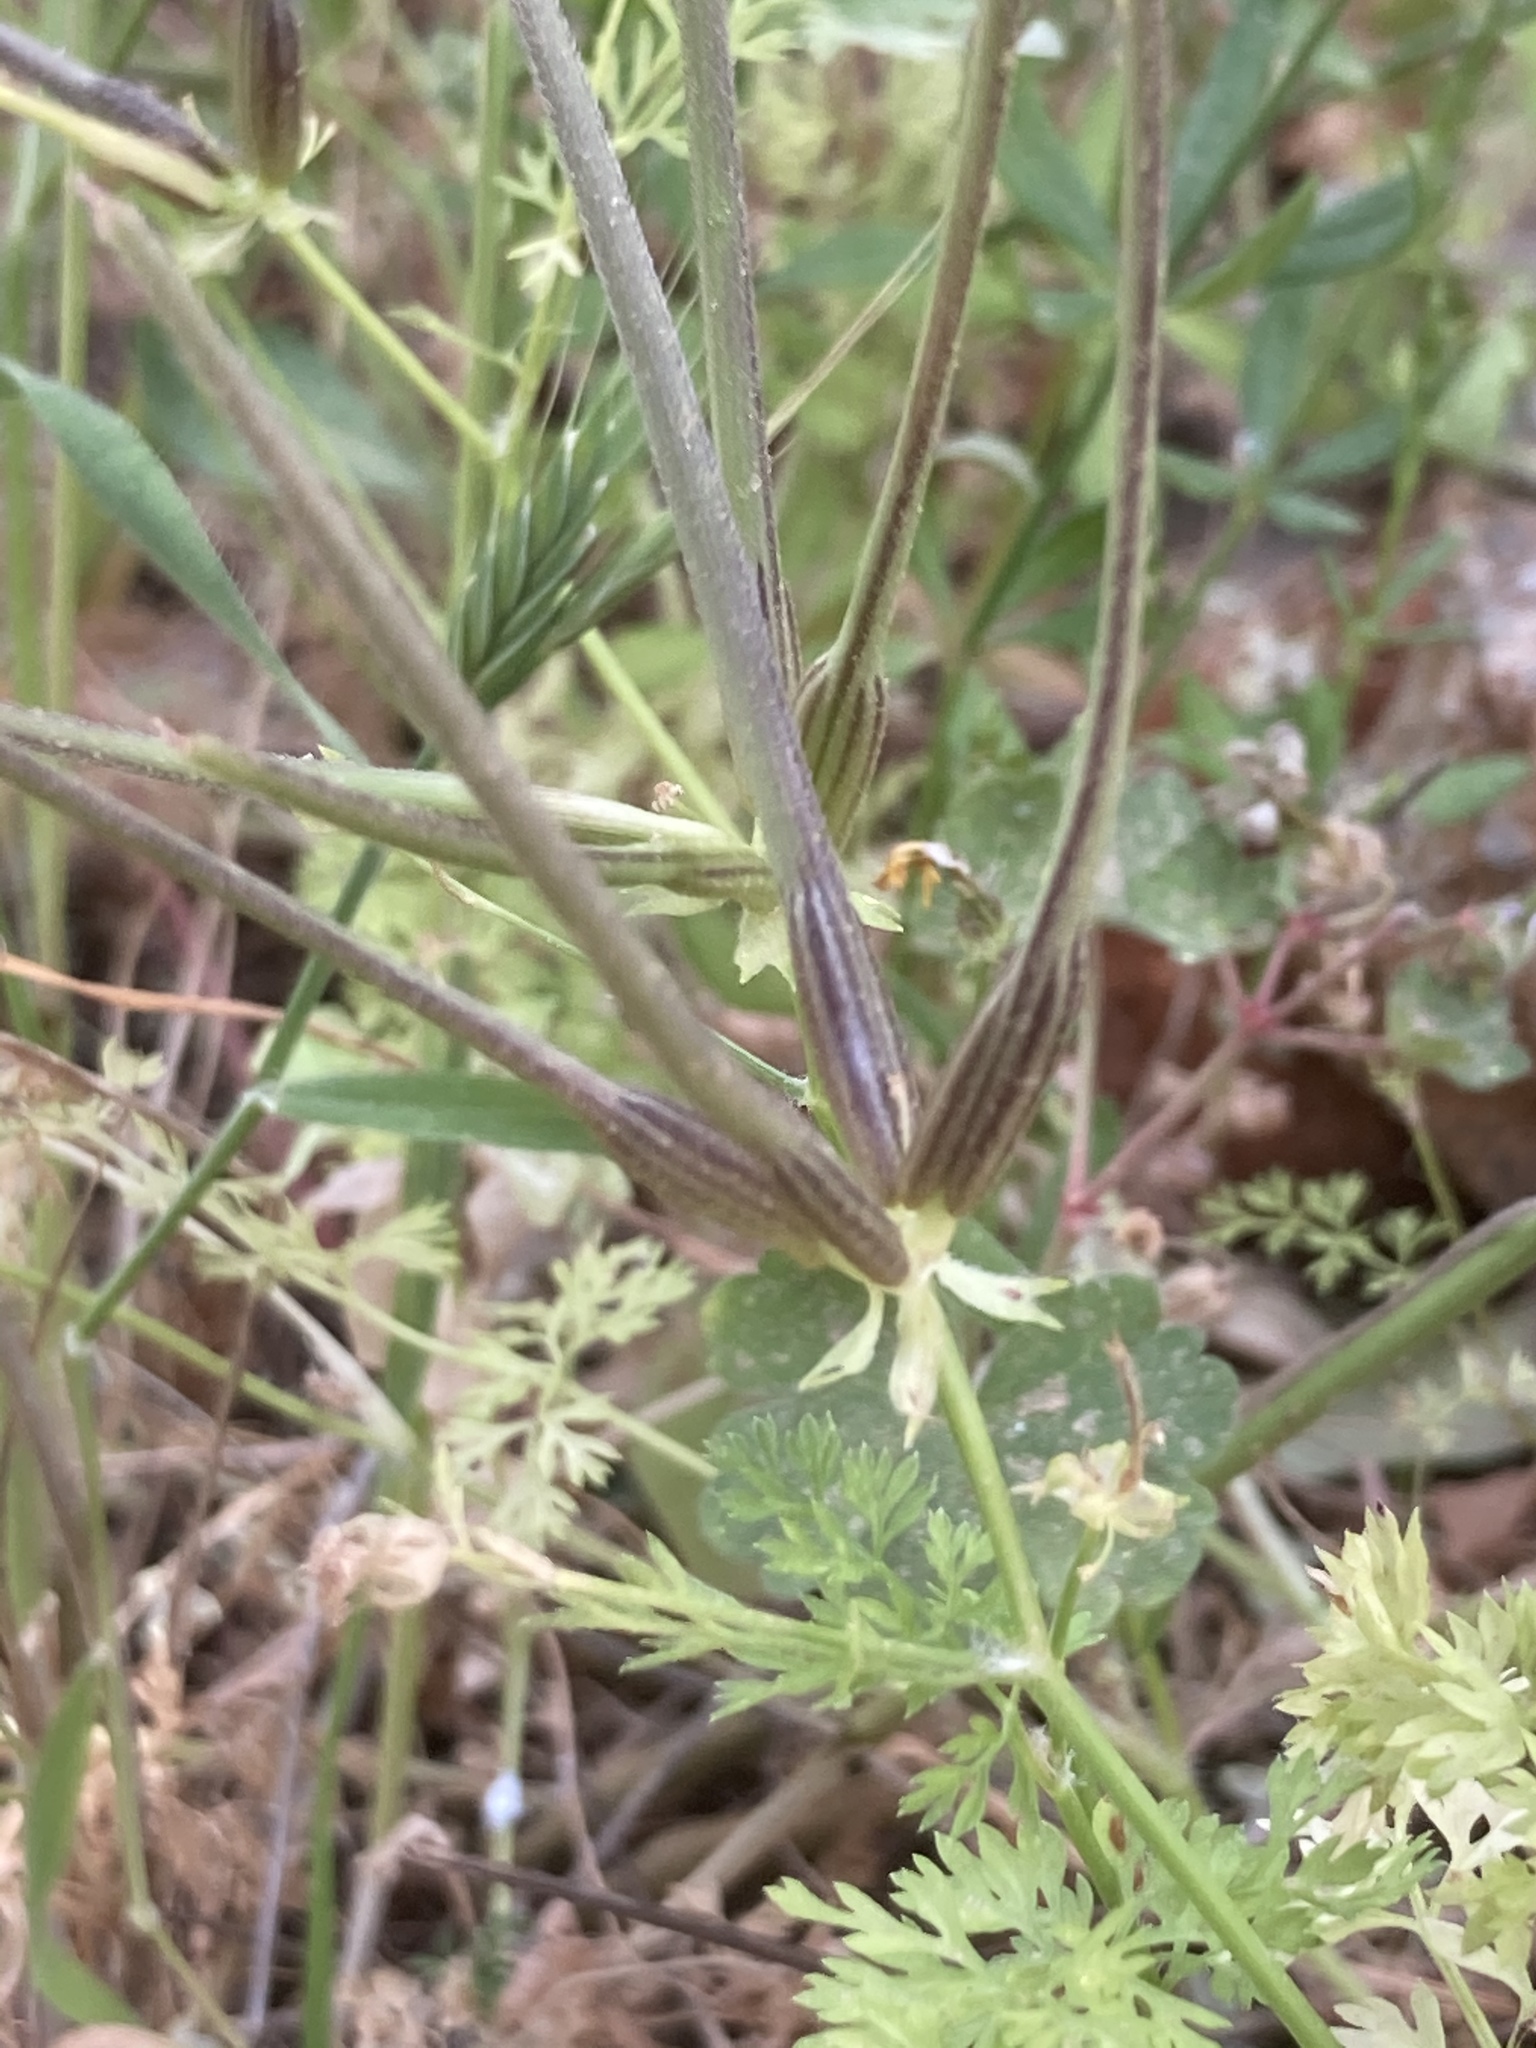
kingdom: Plantae
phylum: Tracheophyta
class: Magnoliopsida
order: Apiales
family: Apiaceae
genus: Scandix
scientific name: Scandix pecten-veneris
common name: Shepherd's-needle
